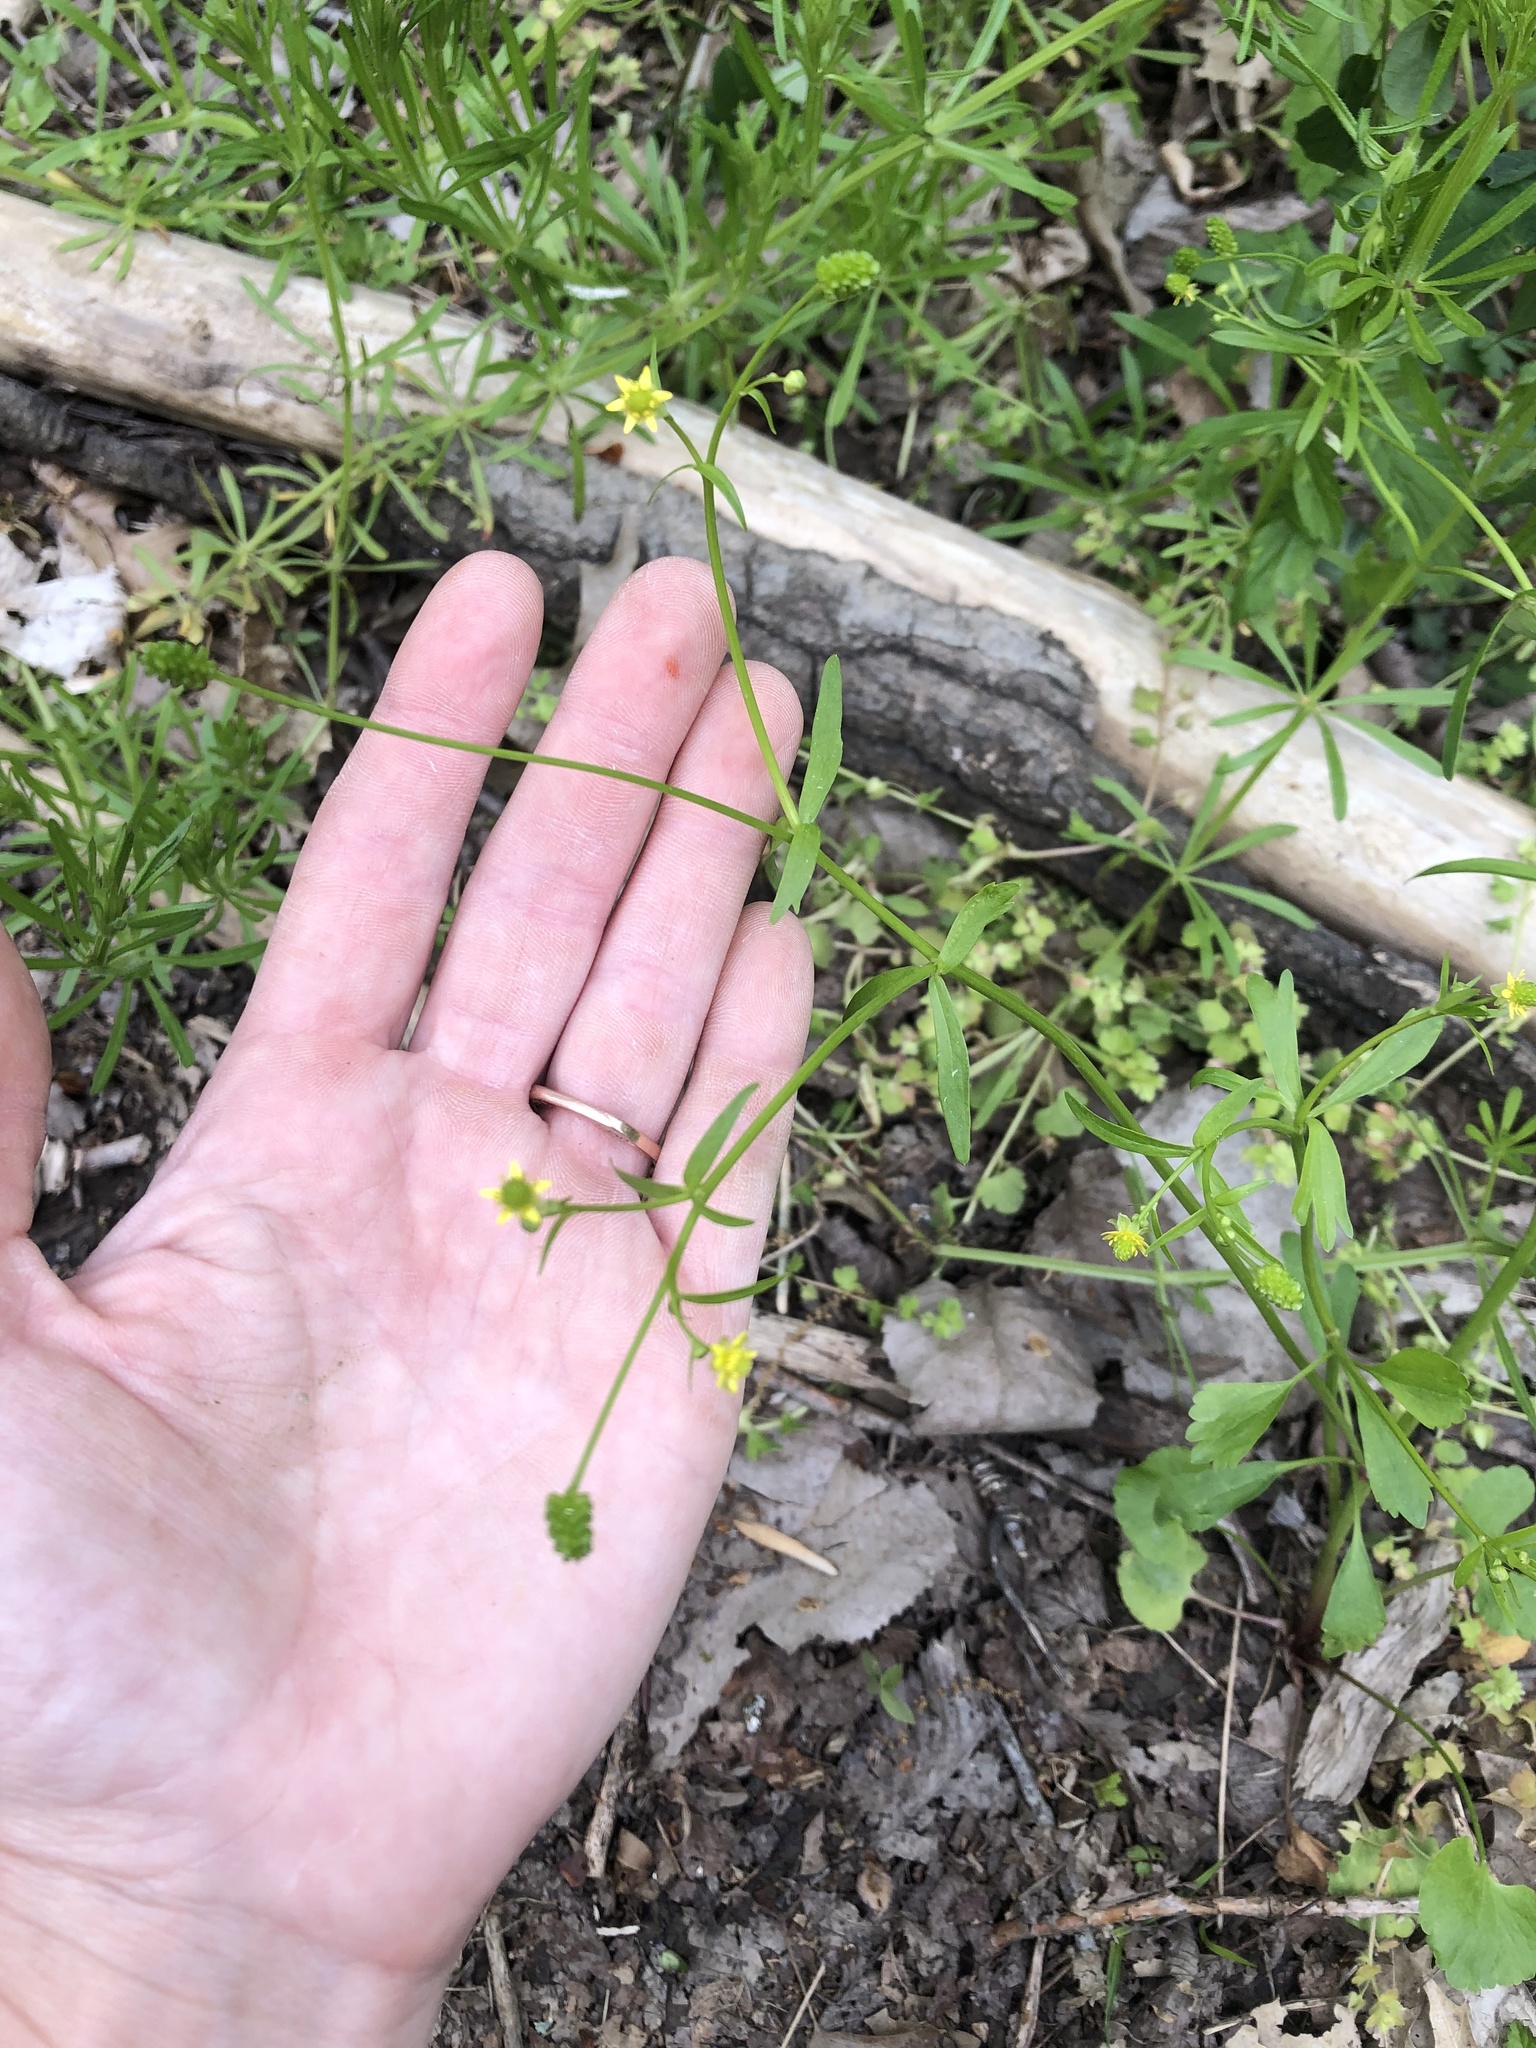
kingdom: Plantae
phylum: Tracheophyta
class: Magnoliopsida
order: Ranunculales
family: Ranunculaceae
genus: Ranunculus
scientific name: Ranunculus abortivus
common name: Early wood buttercup
